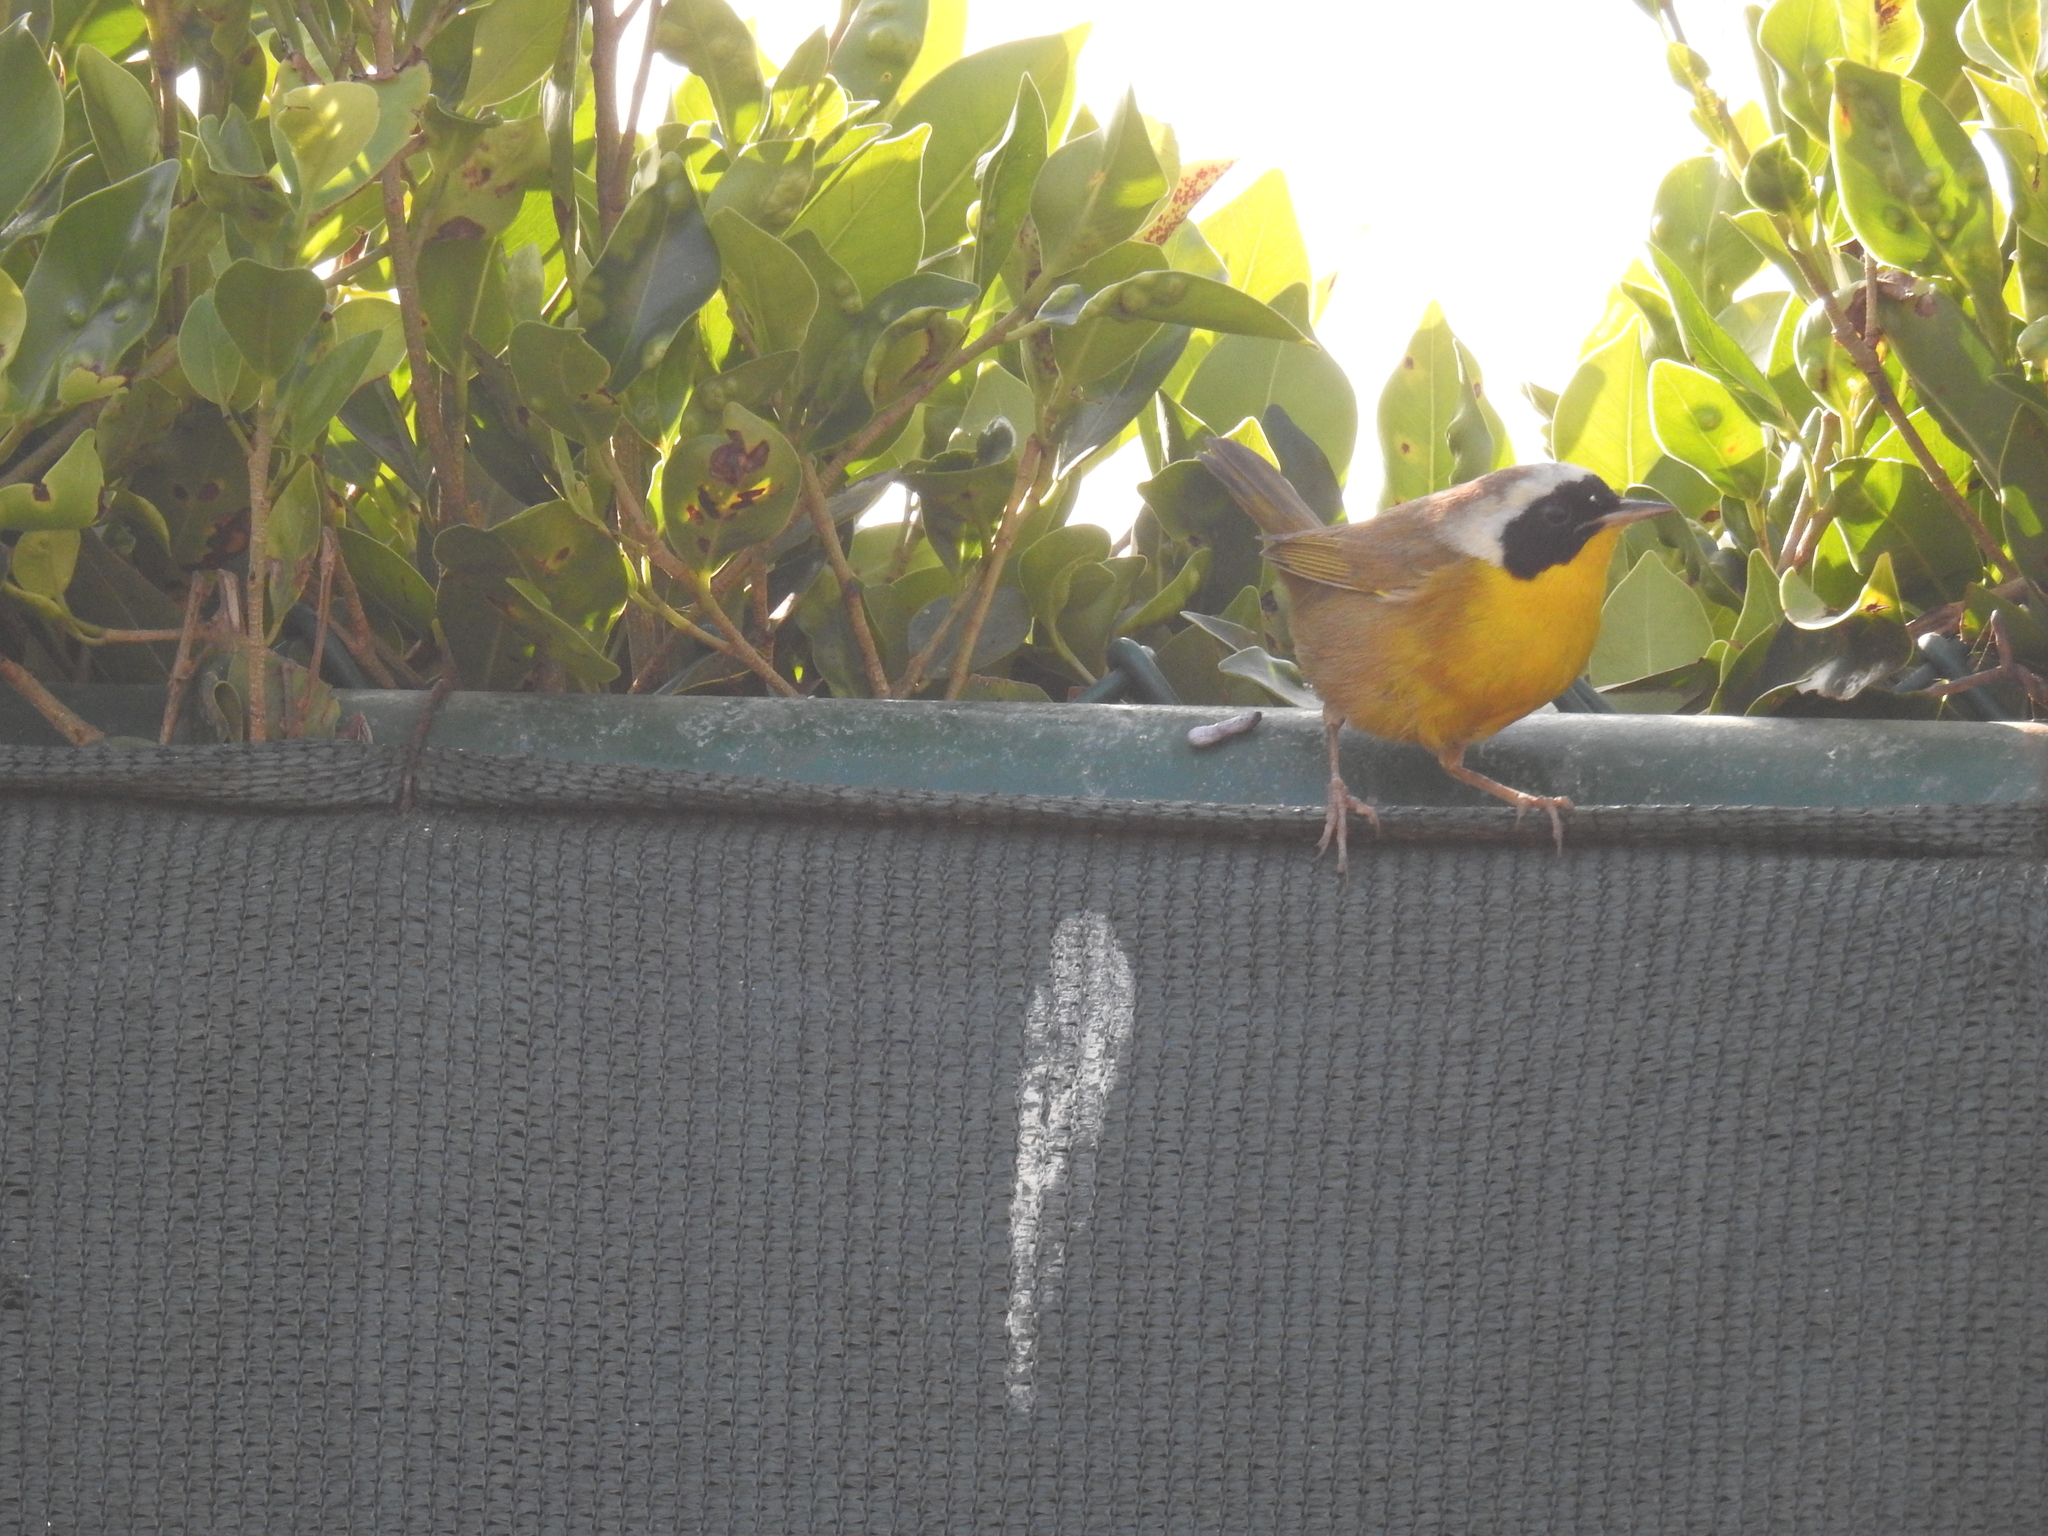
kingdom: Animalia
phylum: Chordata
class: Aves
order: Passeriformes
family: Parulidae
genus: Geothlypis
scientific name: Geothlypis trichas
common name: Common yellowthroat
